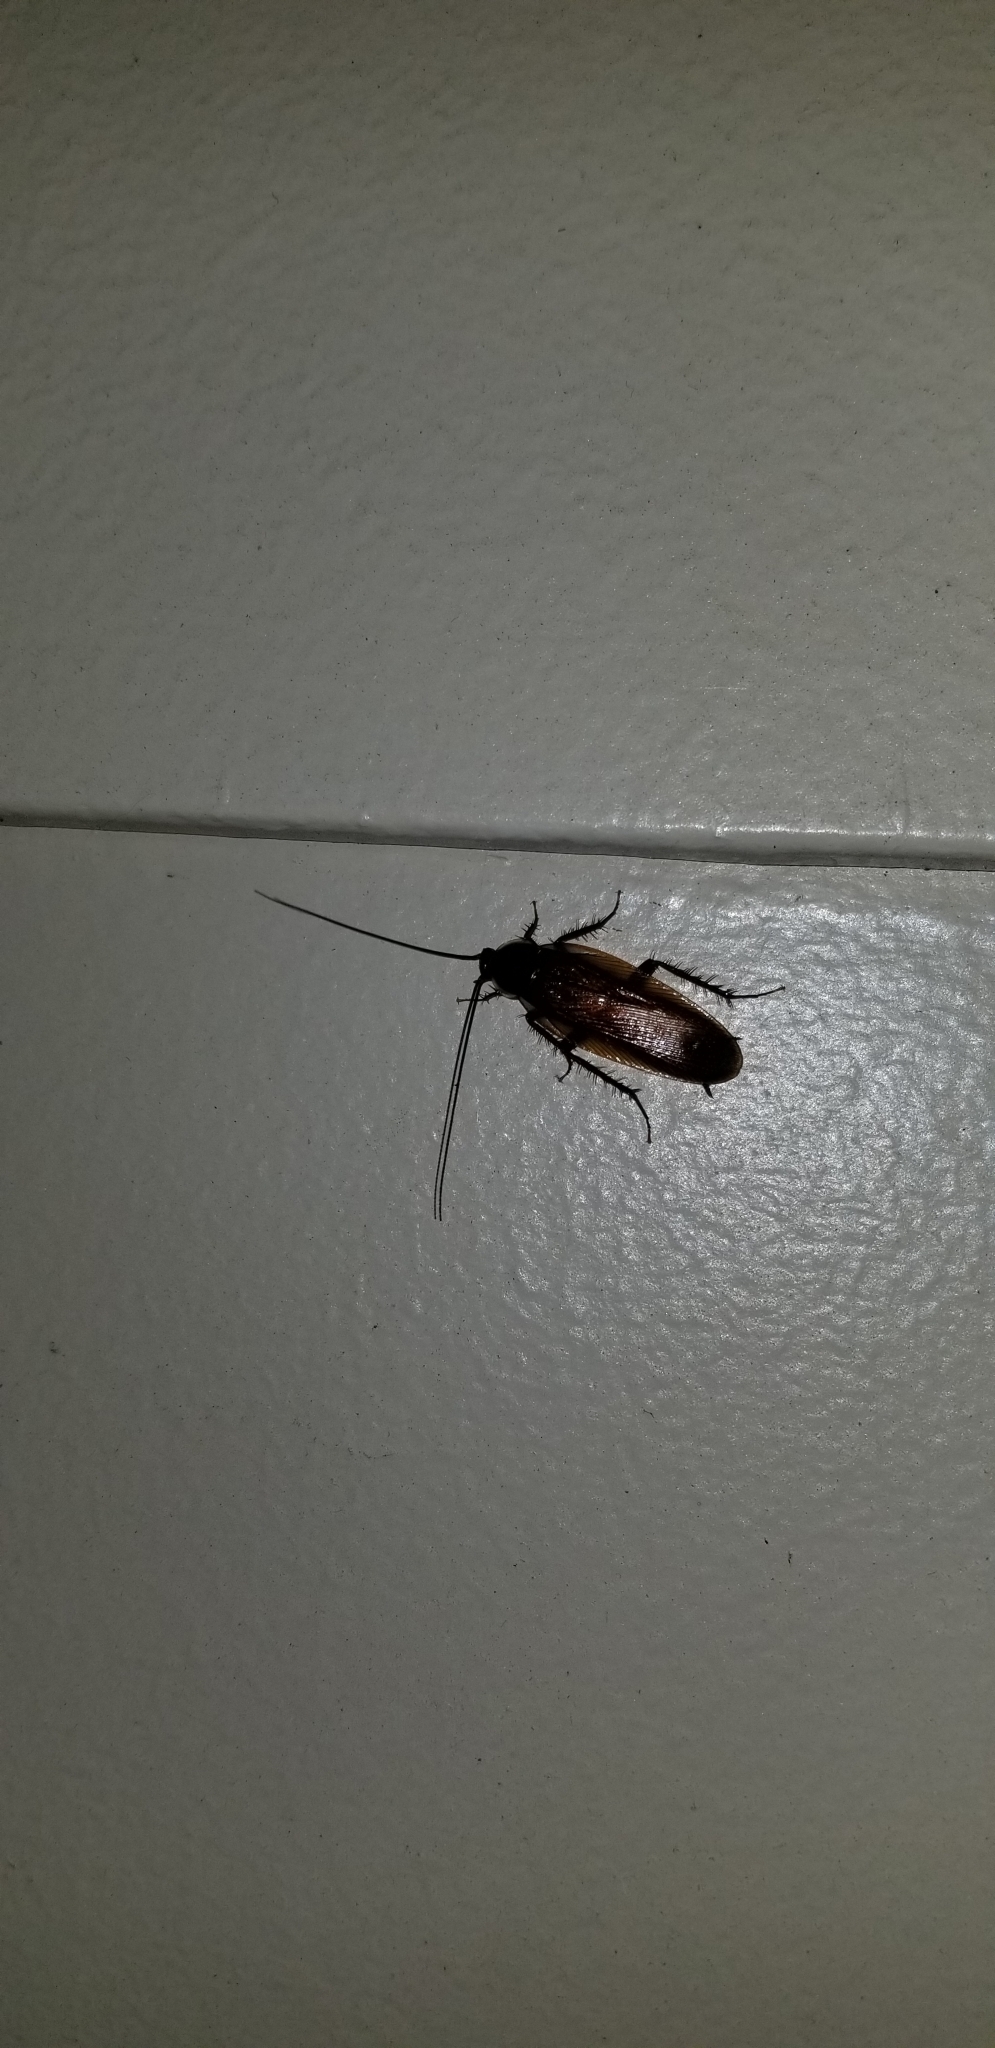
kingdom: Animalia
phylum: Arthropoda
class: Insecta
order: Blattodea
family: Blattidae
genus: Periplaneta
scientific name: Periplaneta fuliginosa
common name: Smokeybrown cockroad
